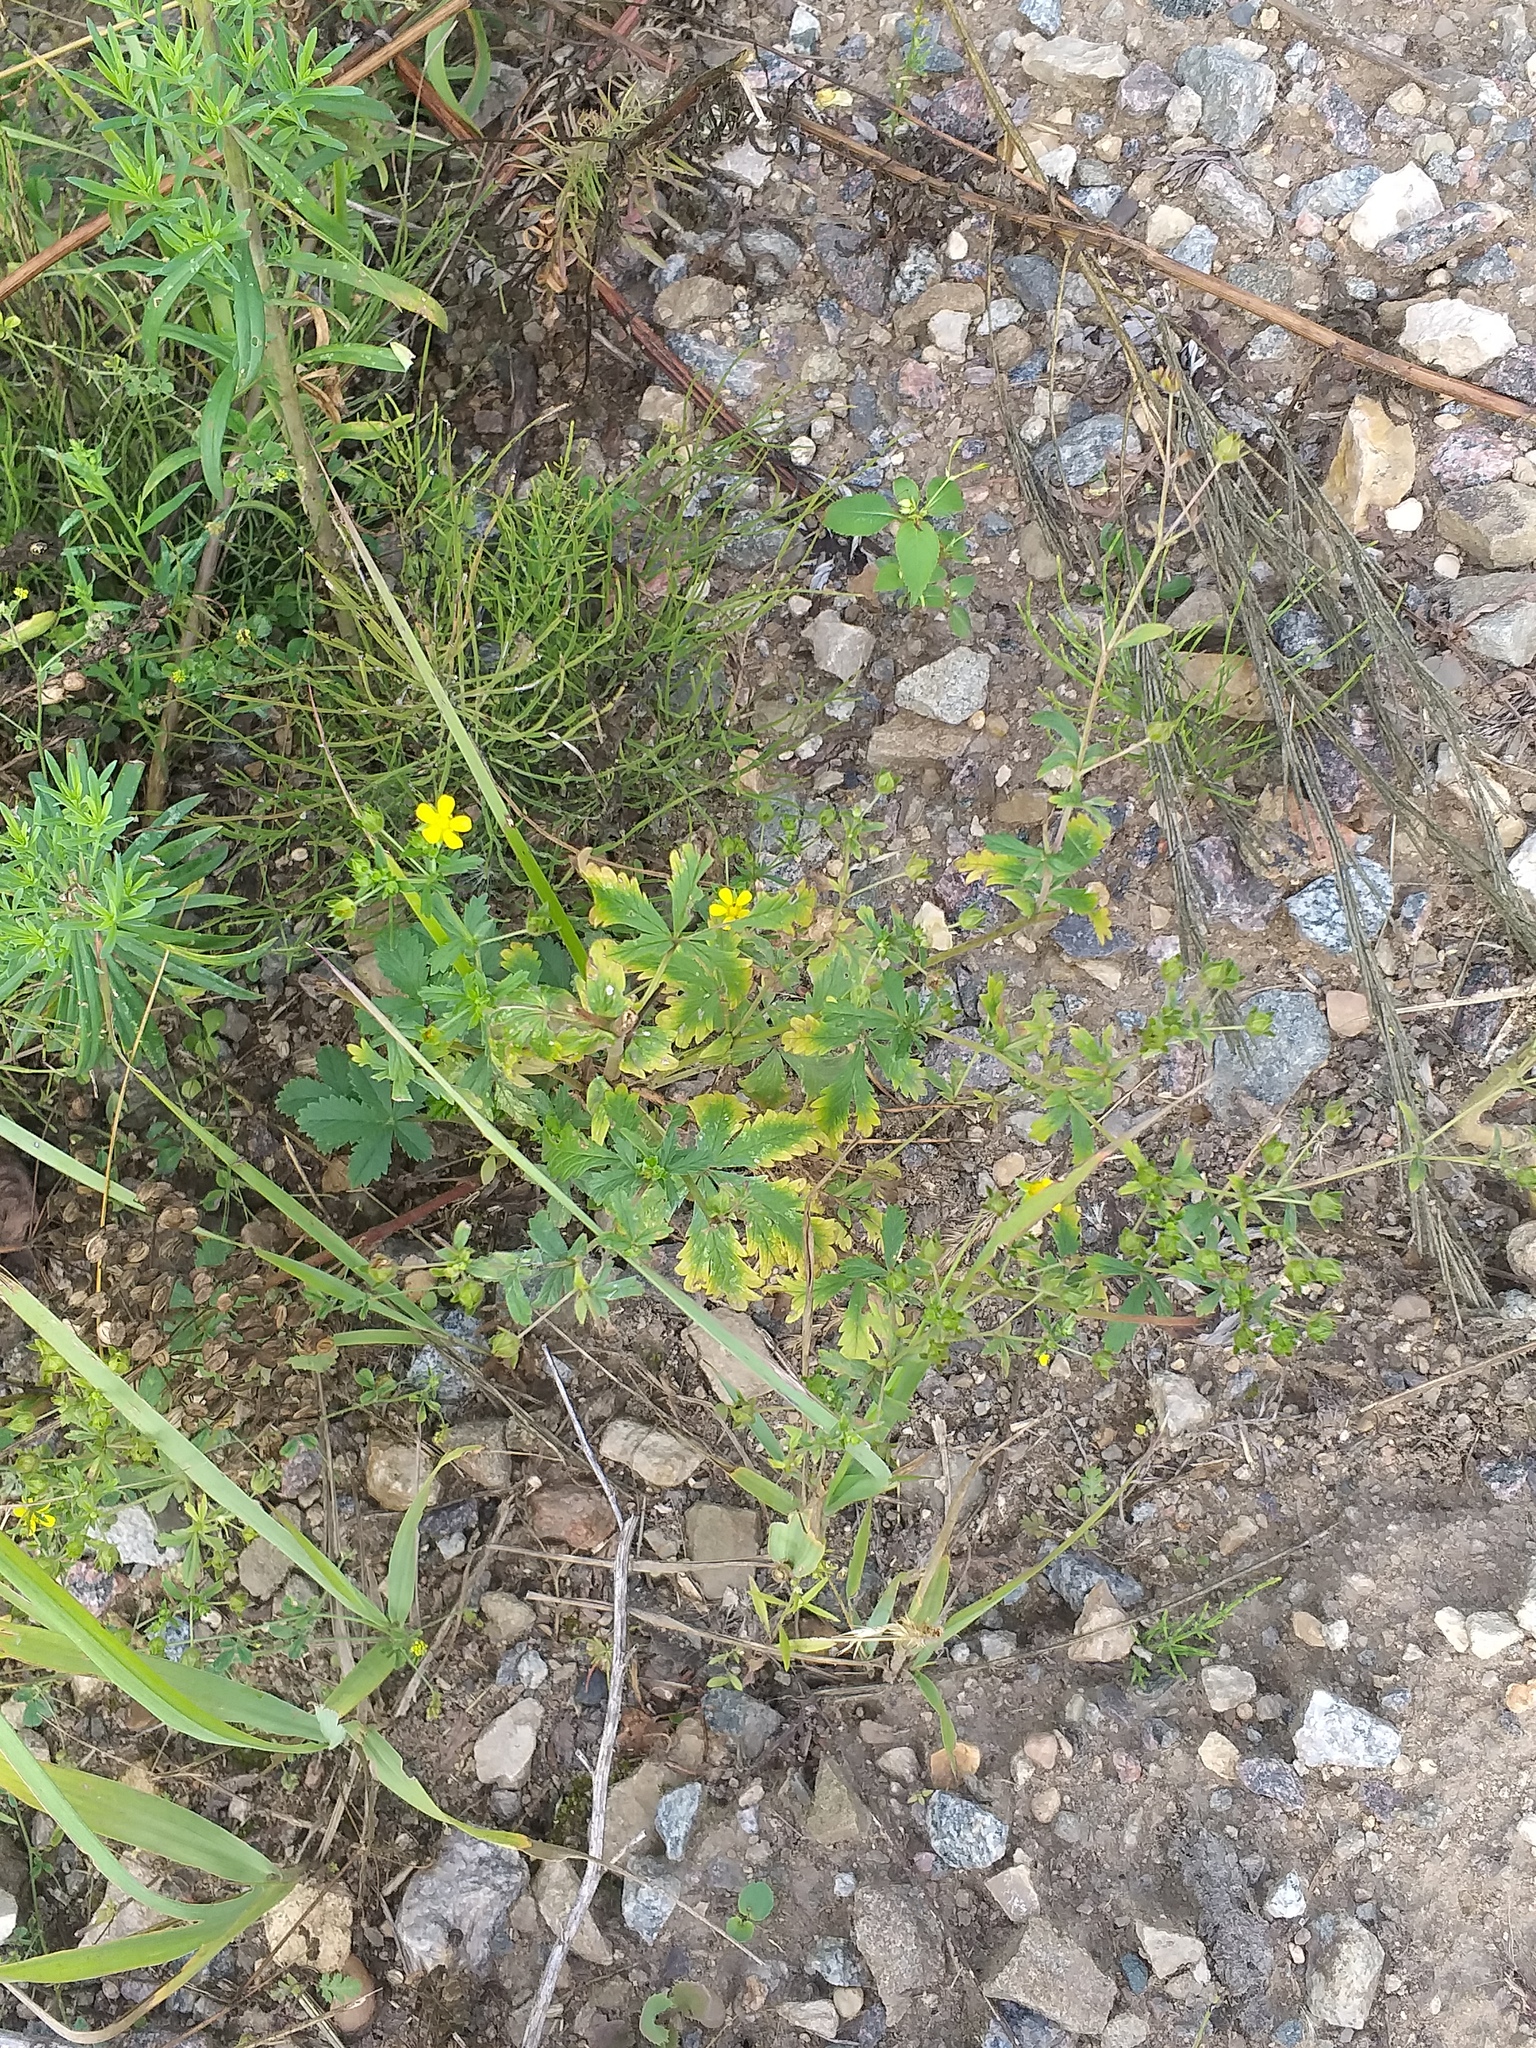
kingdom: Plantae
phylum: Tracheophyta
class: Magnoliopsida
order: Rosales
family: Rosaceae
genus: Potentilla
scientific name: Potentilla intermedia
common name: Downy cinquefoil
